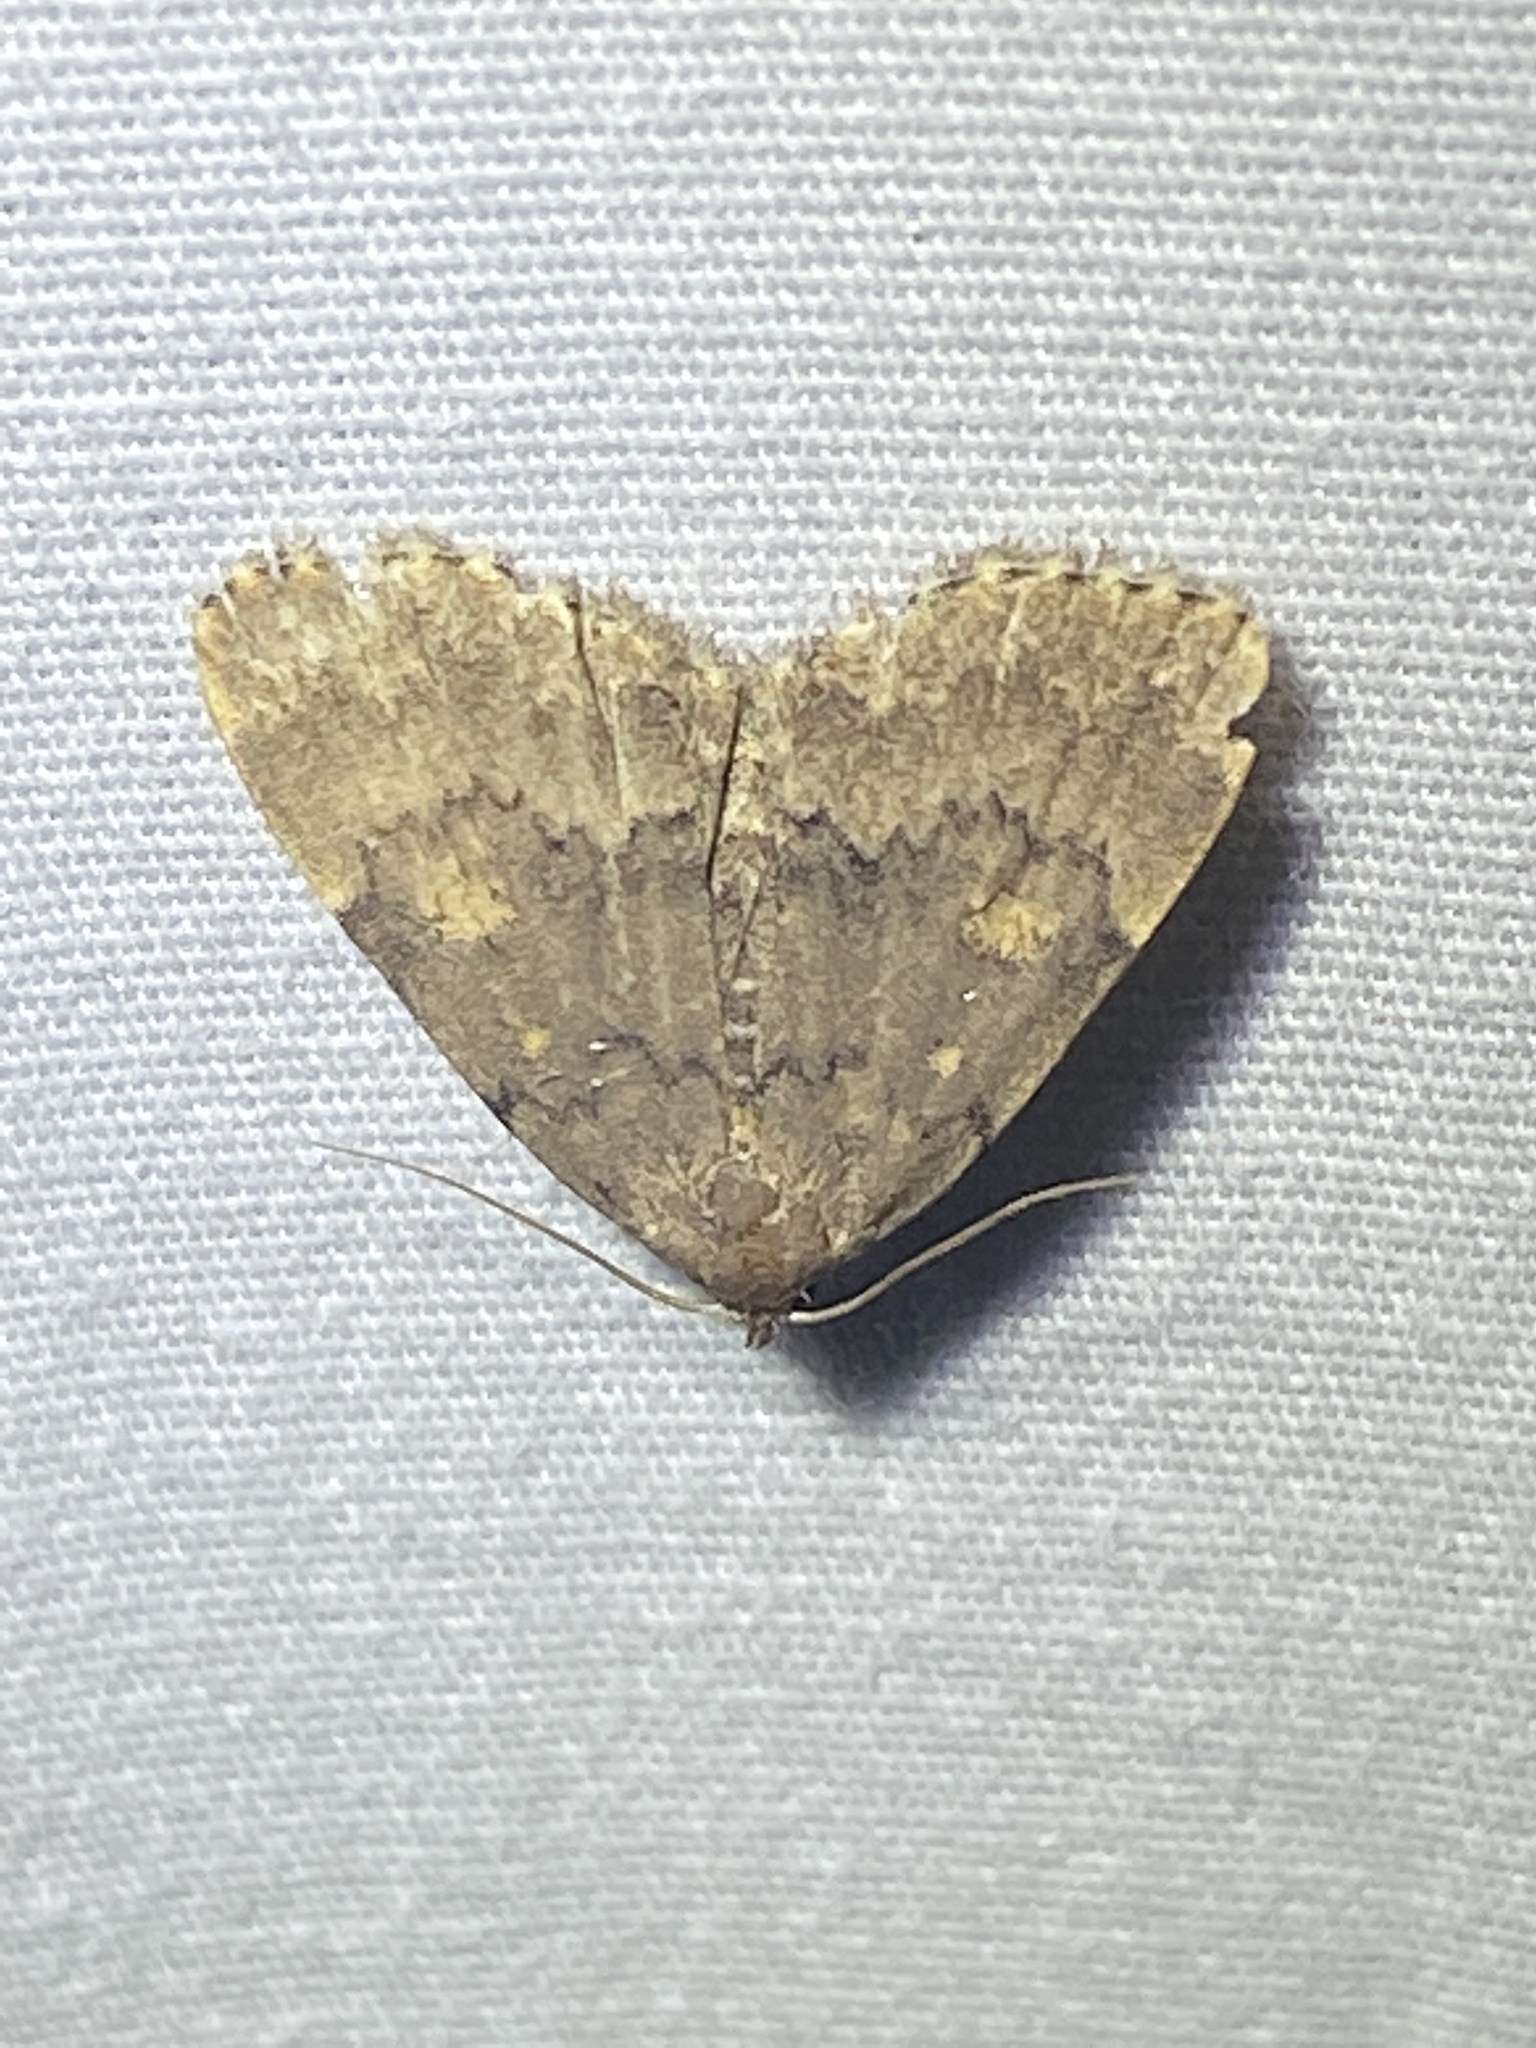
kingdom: Animalia
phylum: Arthropoda
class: Insecta
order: Lepidoptera
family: Erebidae
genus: Idia
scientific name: Idia aemula
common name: Common idia moth
